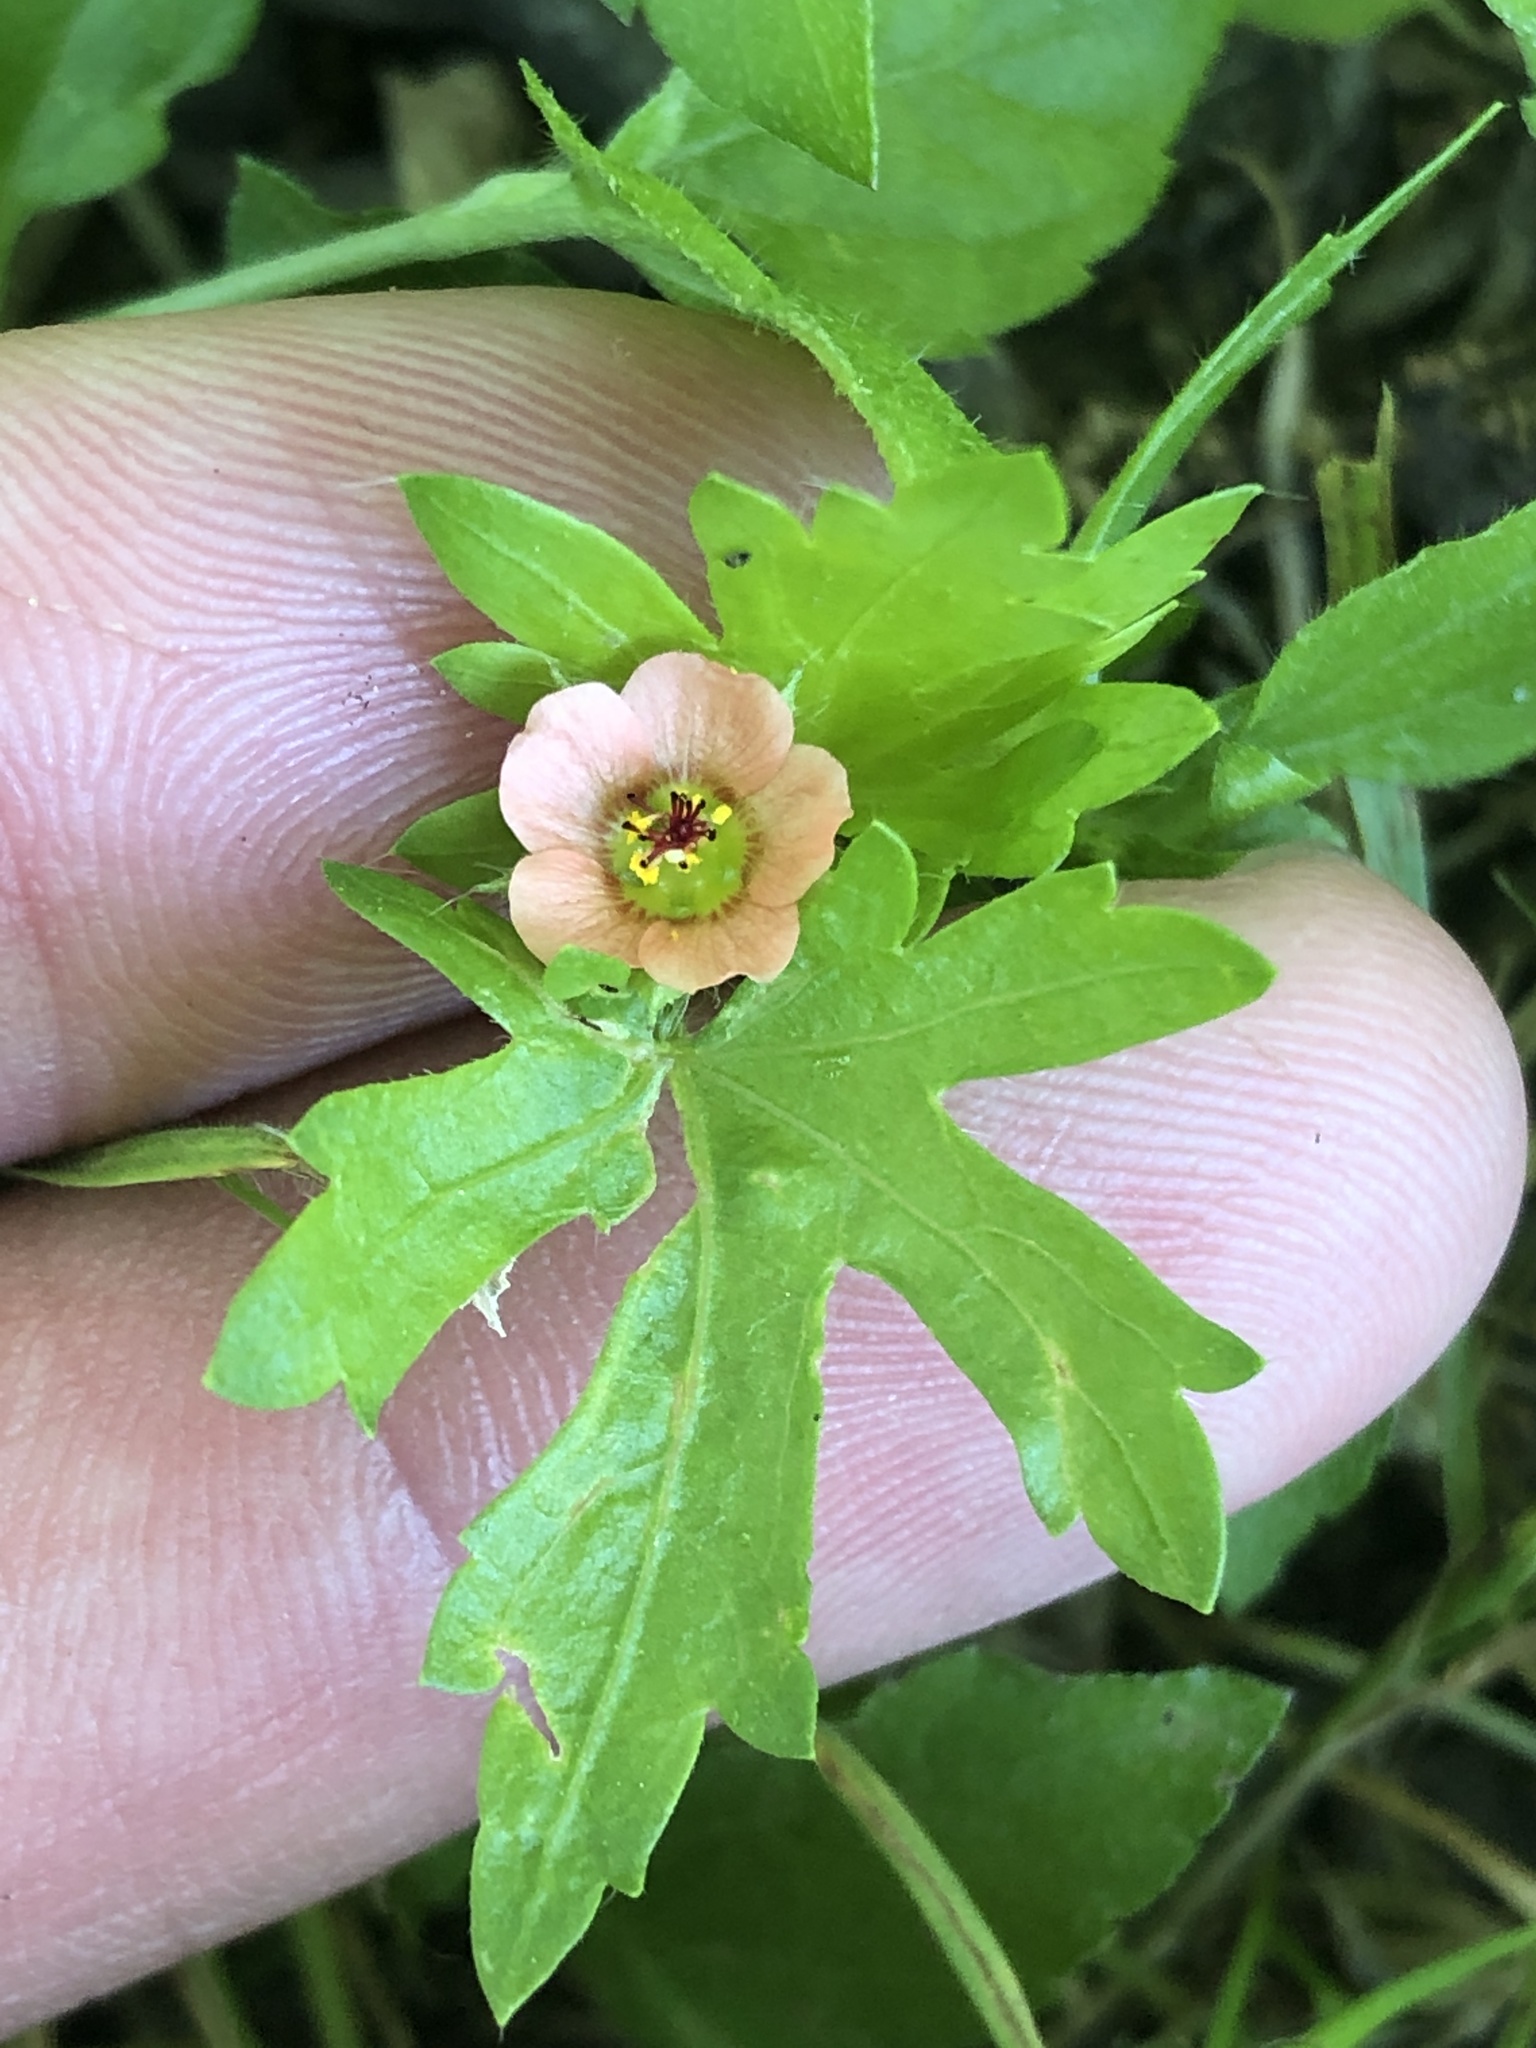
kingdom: Plantae
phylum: Tracheophyta
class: Magnoliopsida
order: Malvales
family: Malvaceae
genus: Modiola
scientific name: Modiola caroliniana
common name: Carolina bristlemallow
